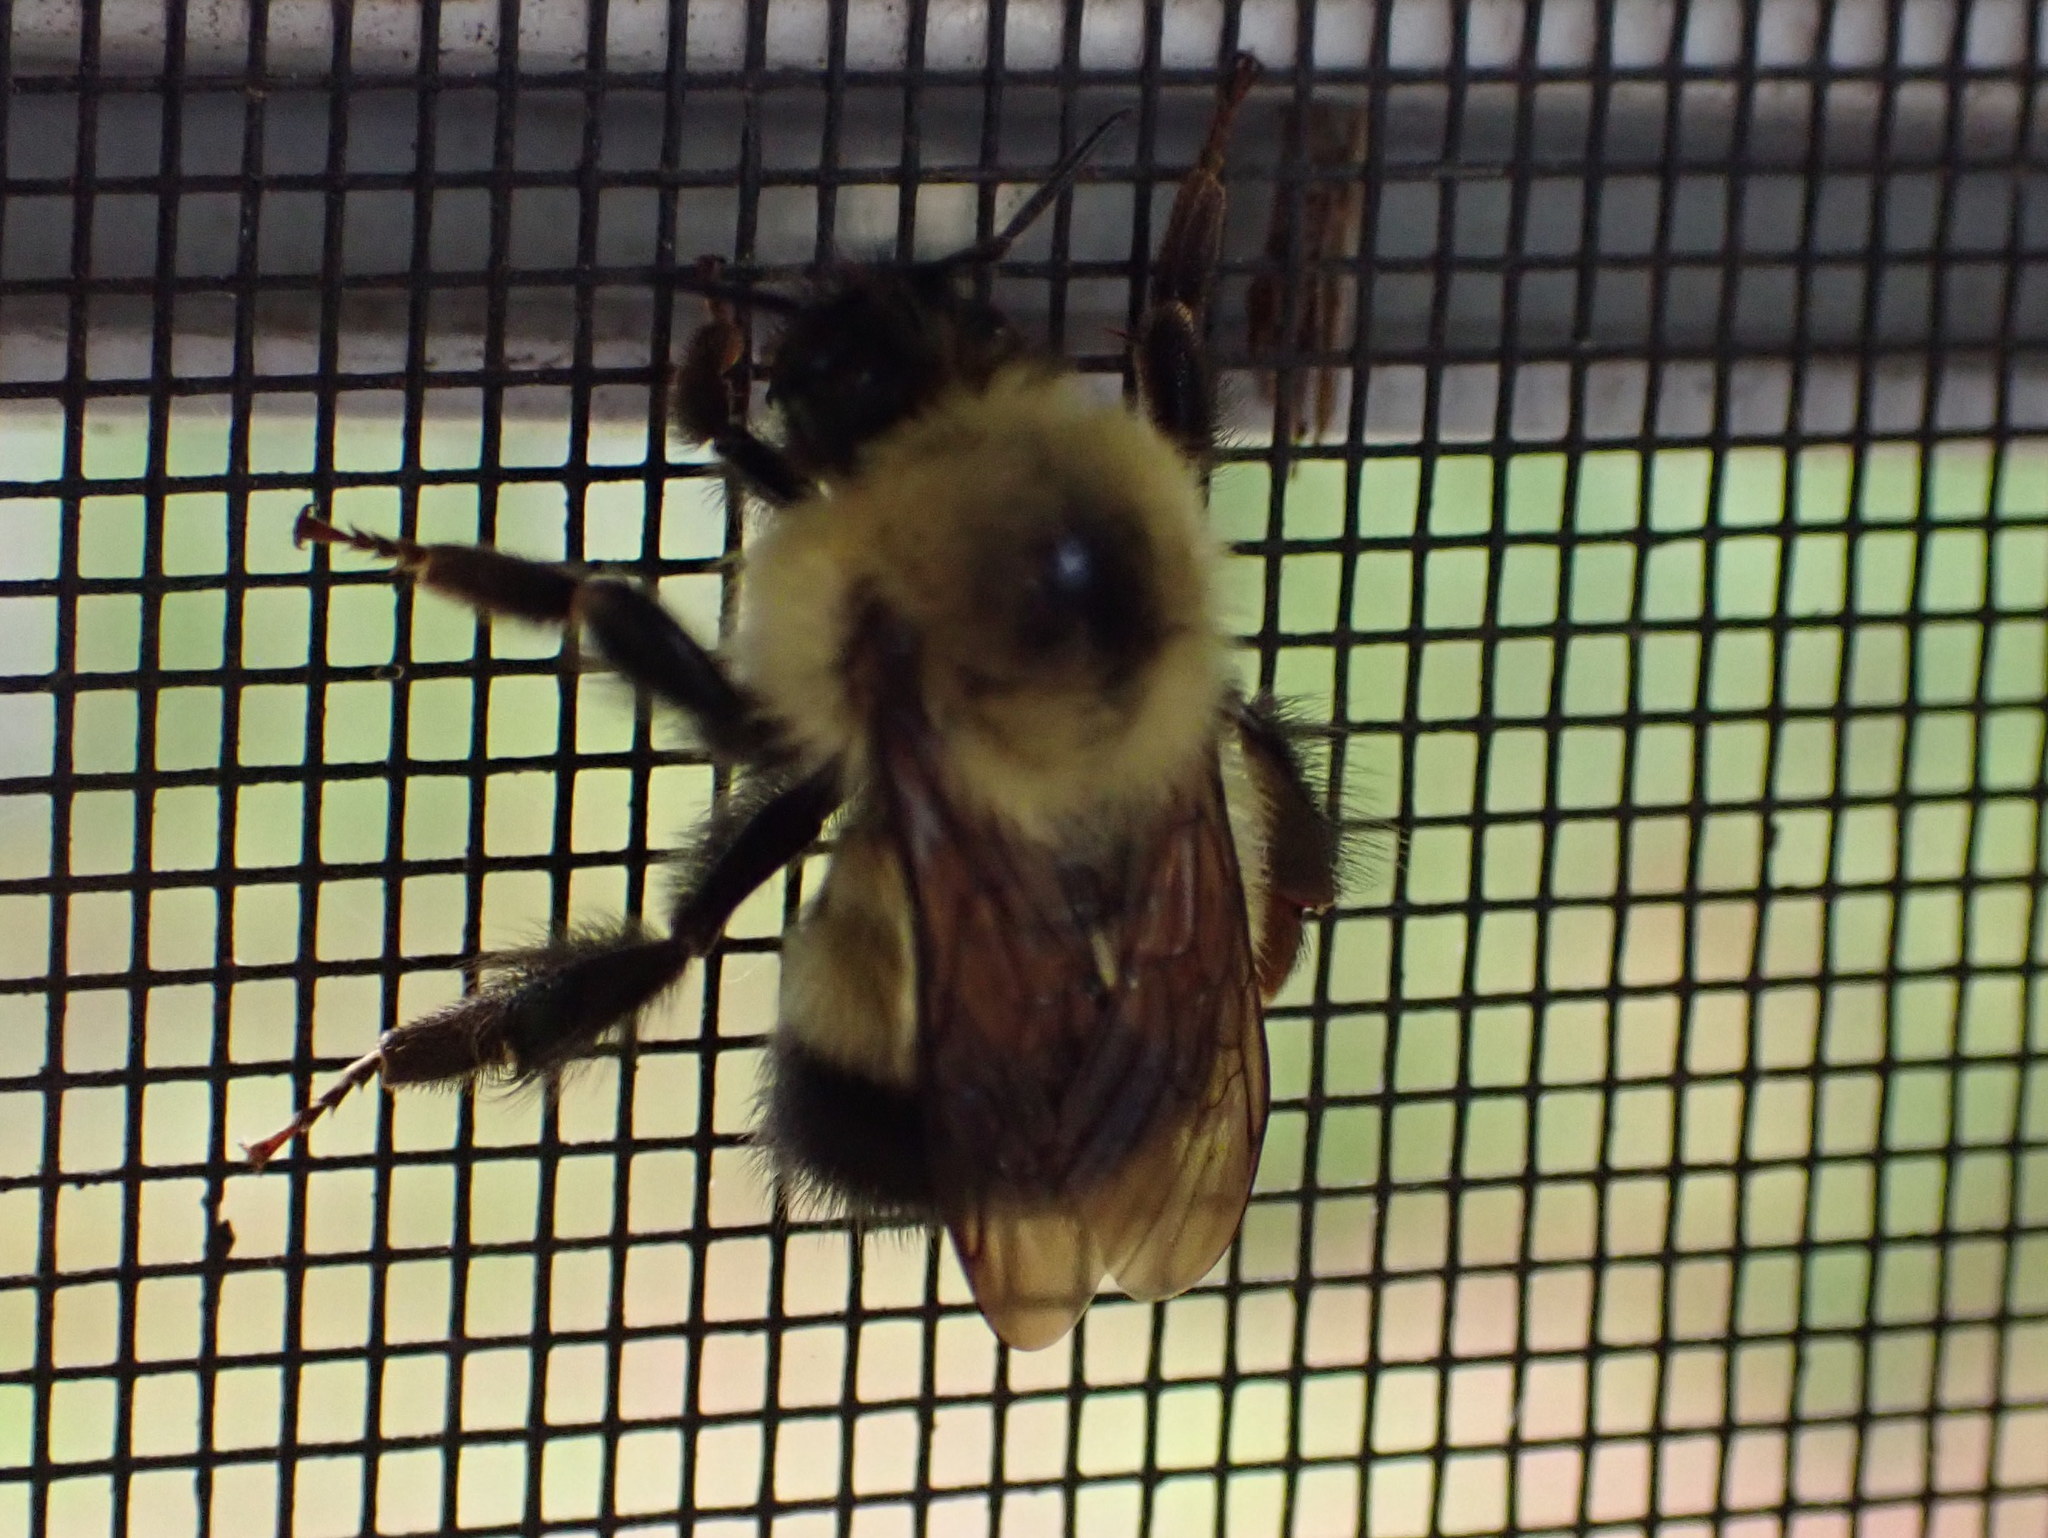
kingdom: Animalia
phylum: Arthropoda
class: Insecta
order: Hymenoptera
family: Apidae
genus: Pyrobombus
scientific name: Pyrobombus
